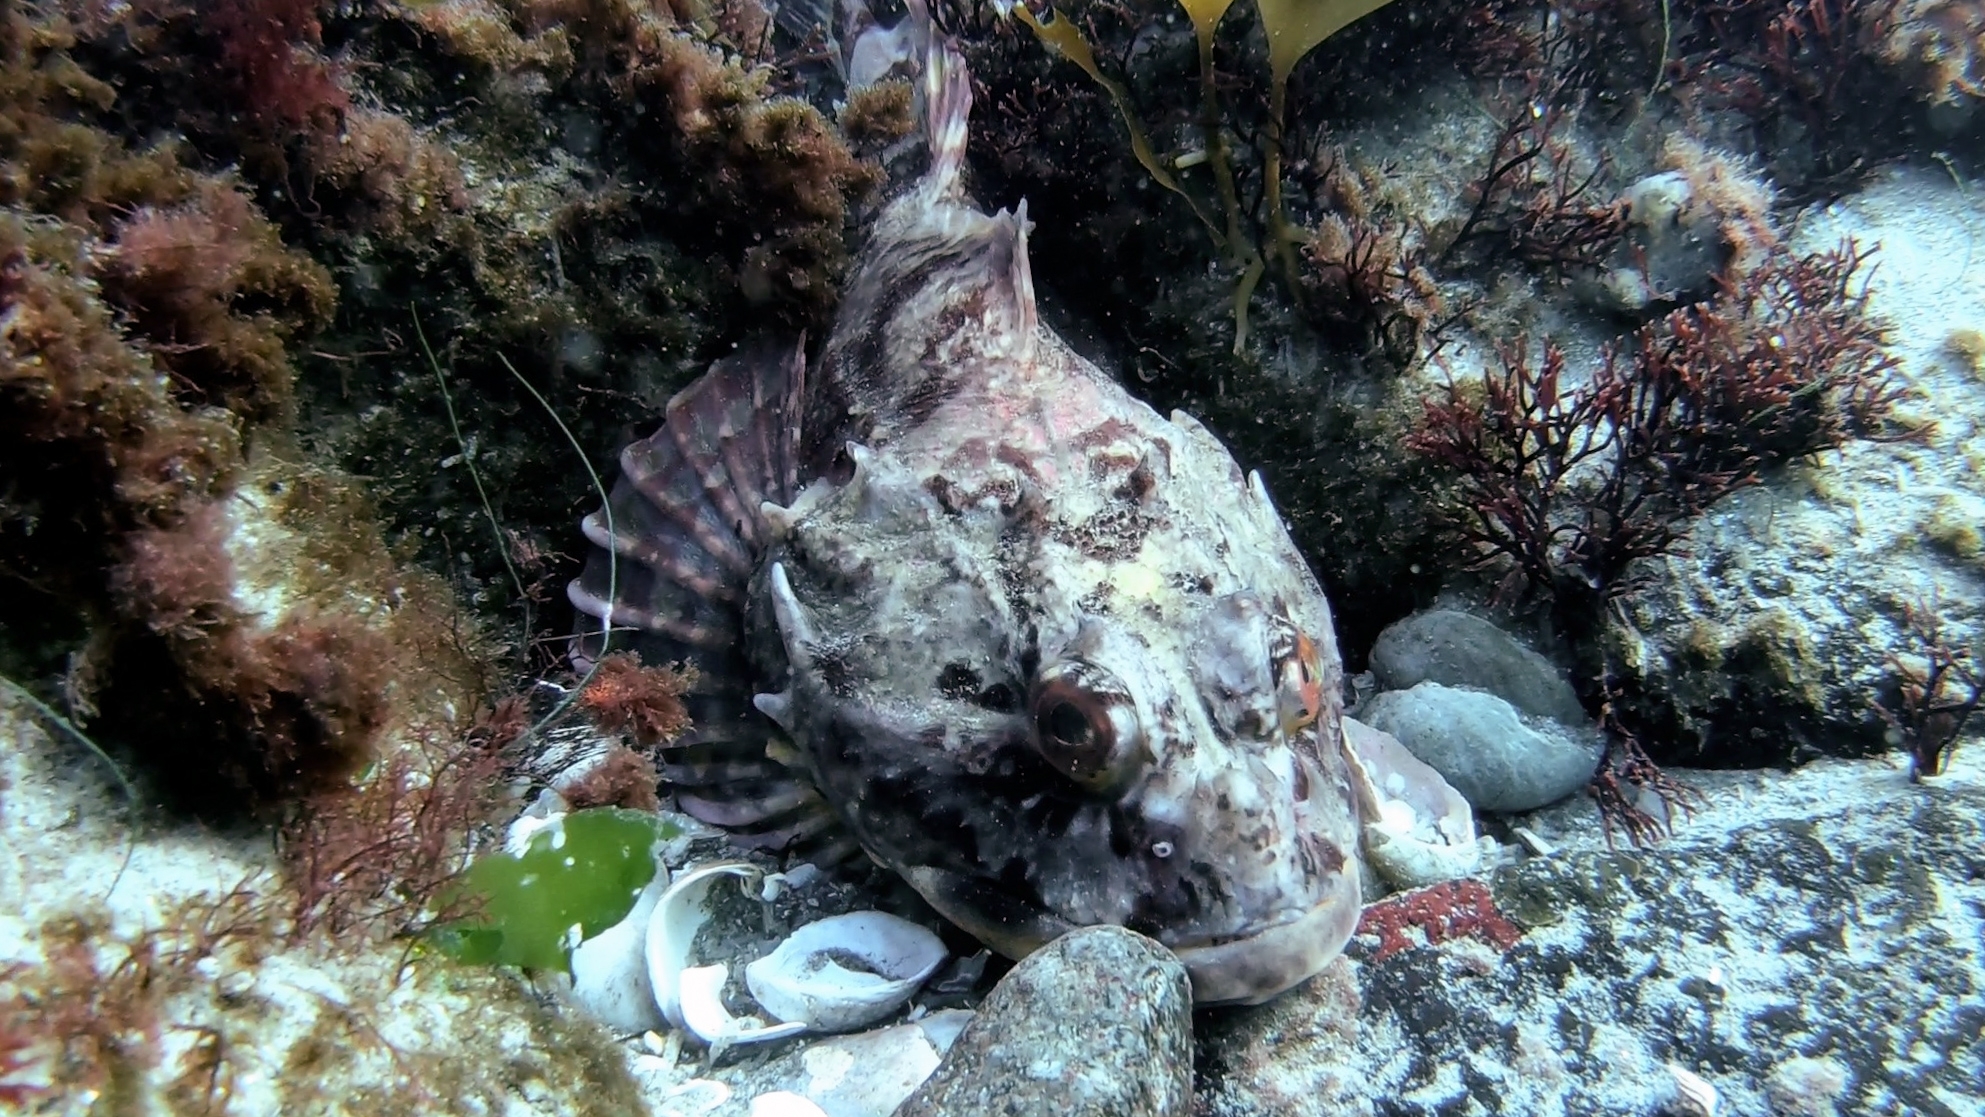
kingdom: Animalia
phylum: Chordata
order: Scorpaeniformes
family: Cottidae
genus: Myoxocephalus
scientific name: Myoxocephalus scorpius
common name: Shorthorn sculpin
